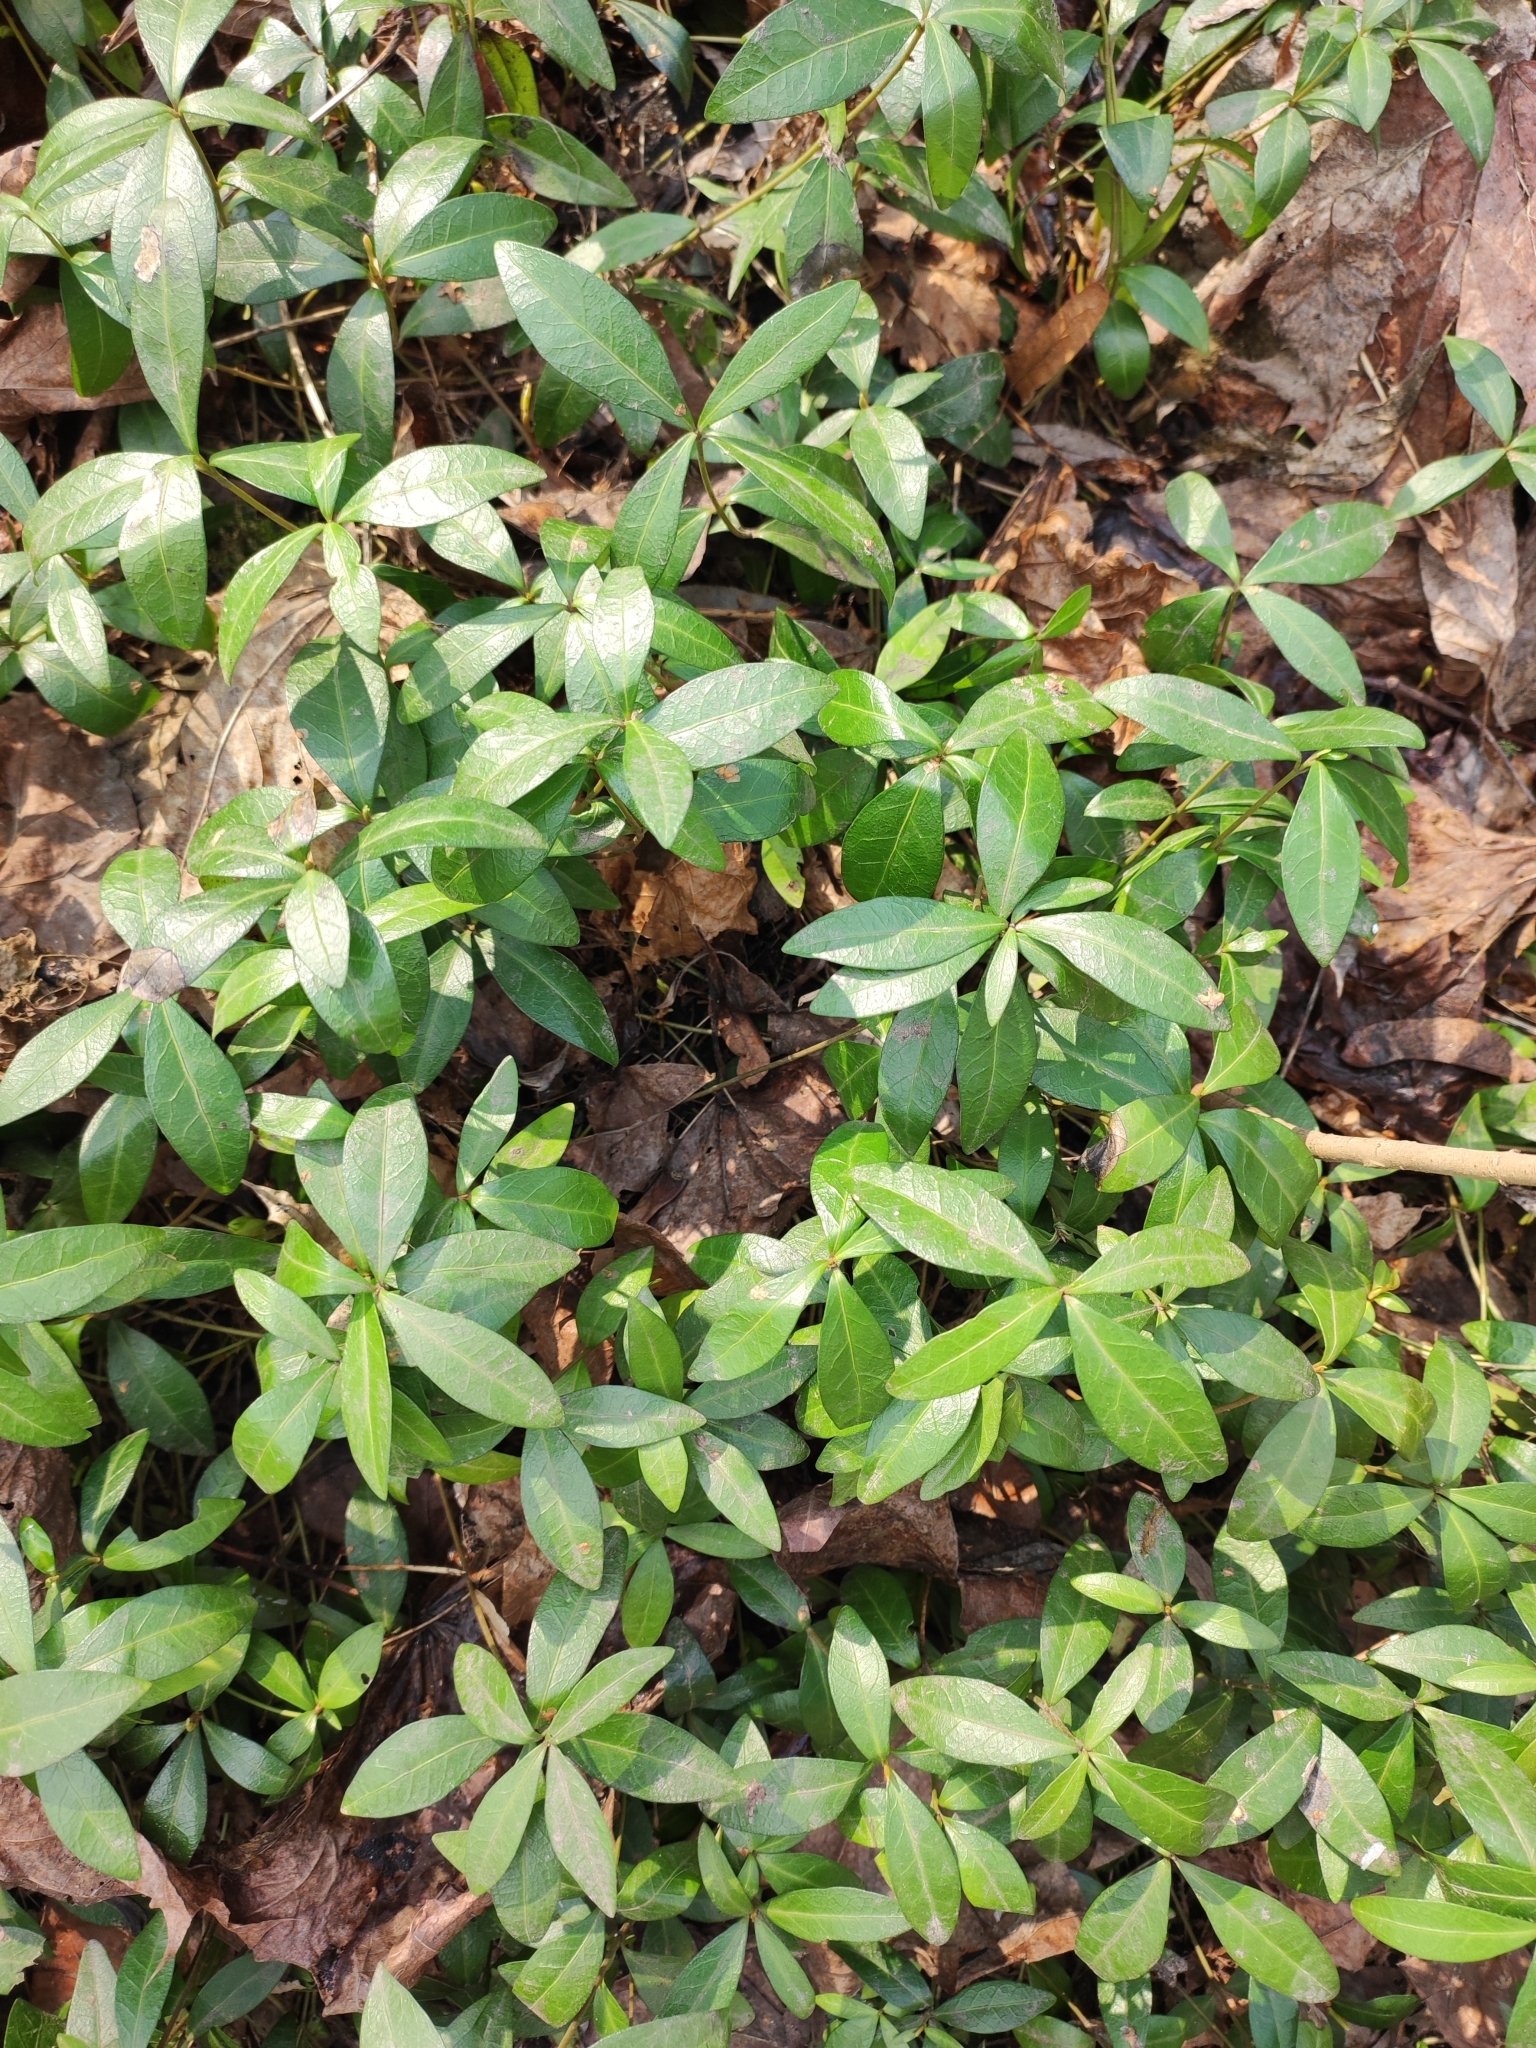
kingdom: Plantae
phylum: Tracheophyta
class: Magnoliopsida
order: Gentianales
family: Apocynaceae
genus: Vinca
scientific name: Vinca minor
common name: Lesser periwinkle
